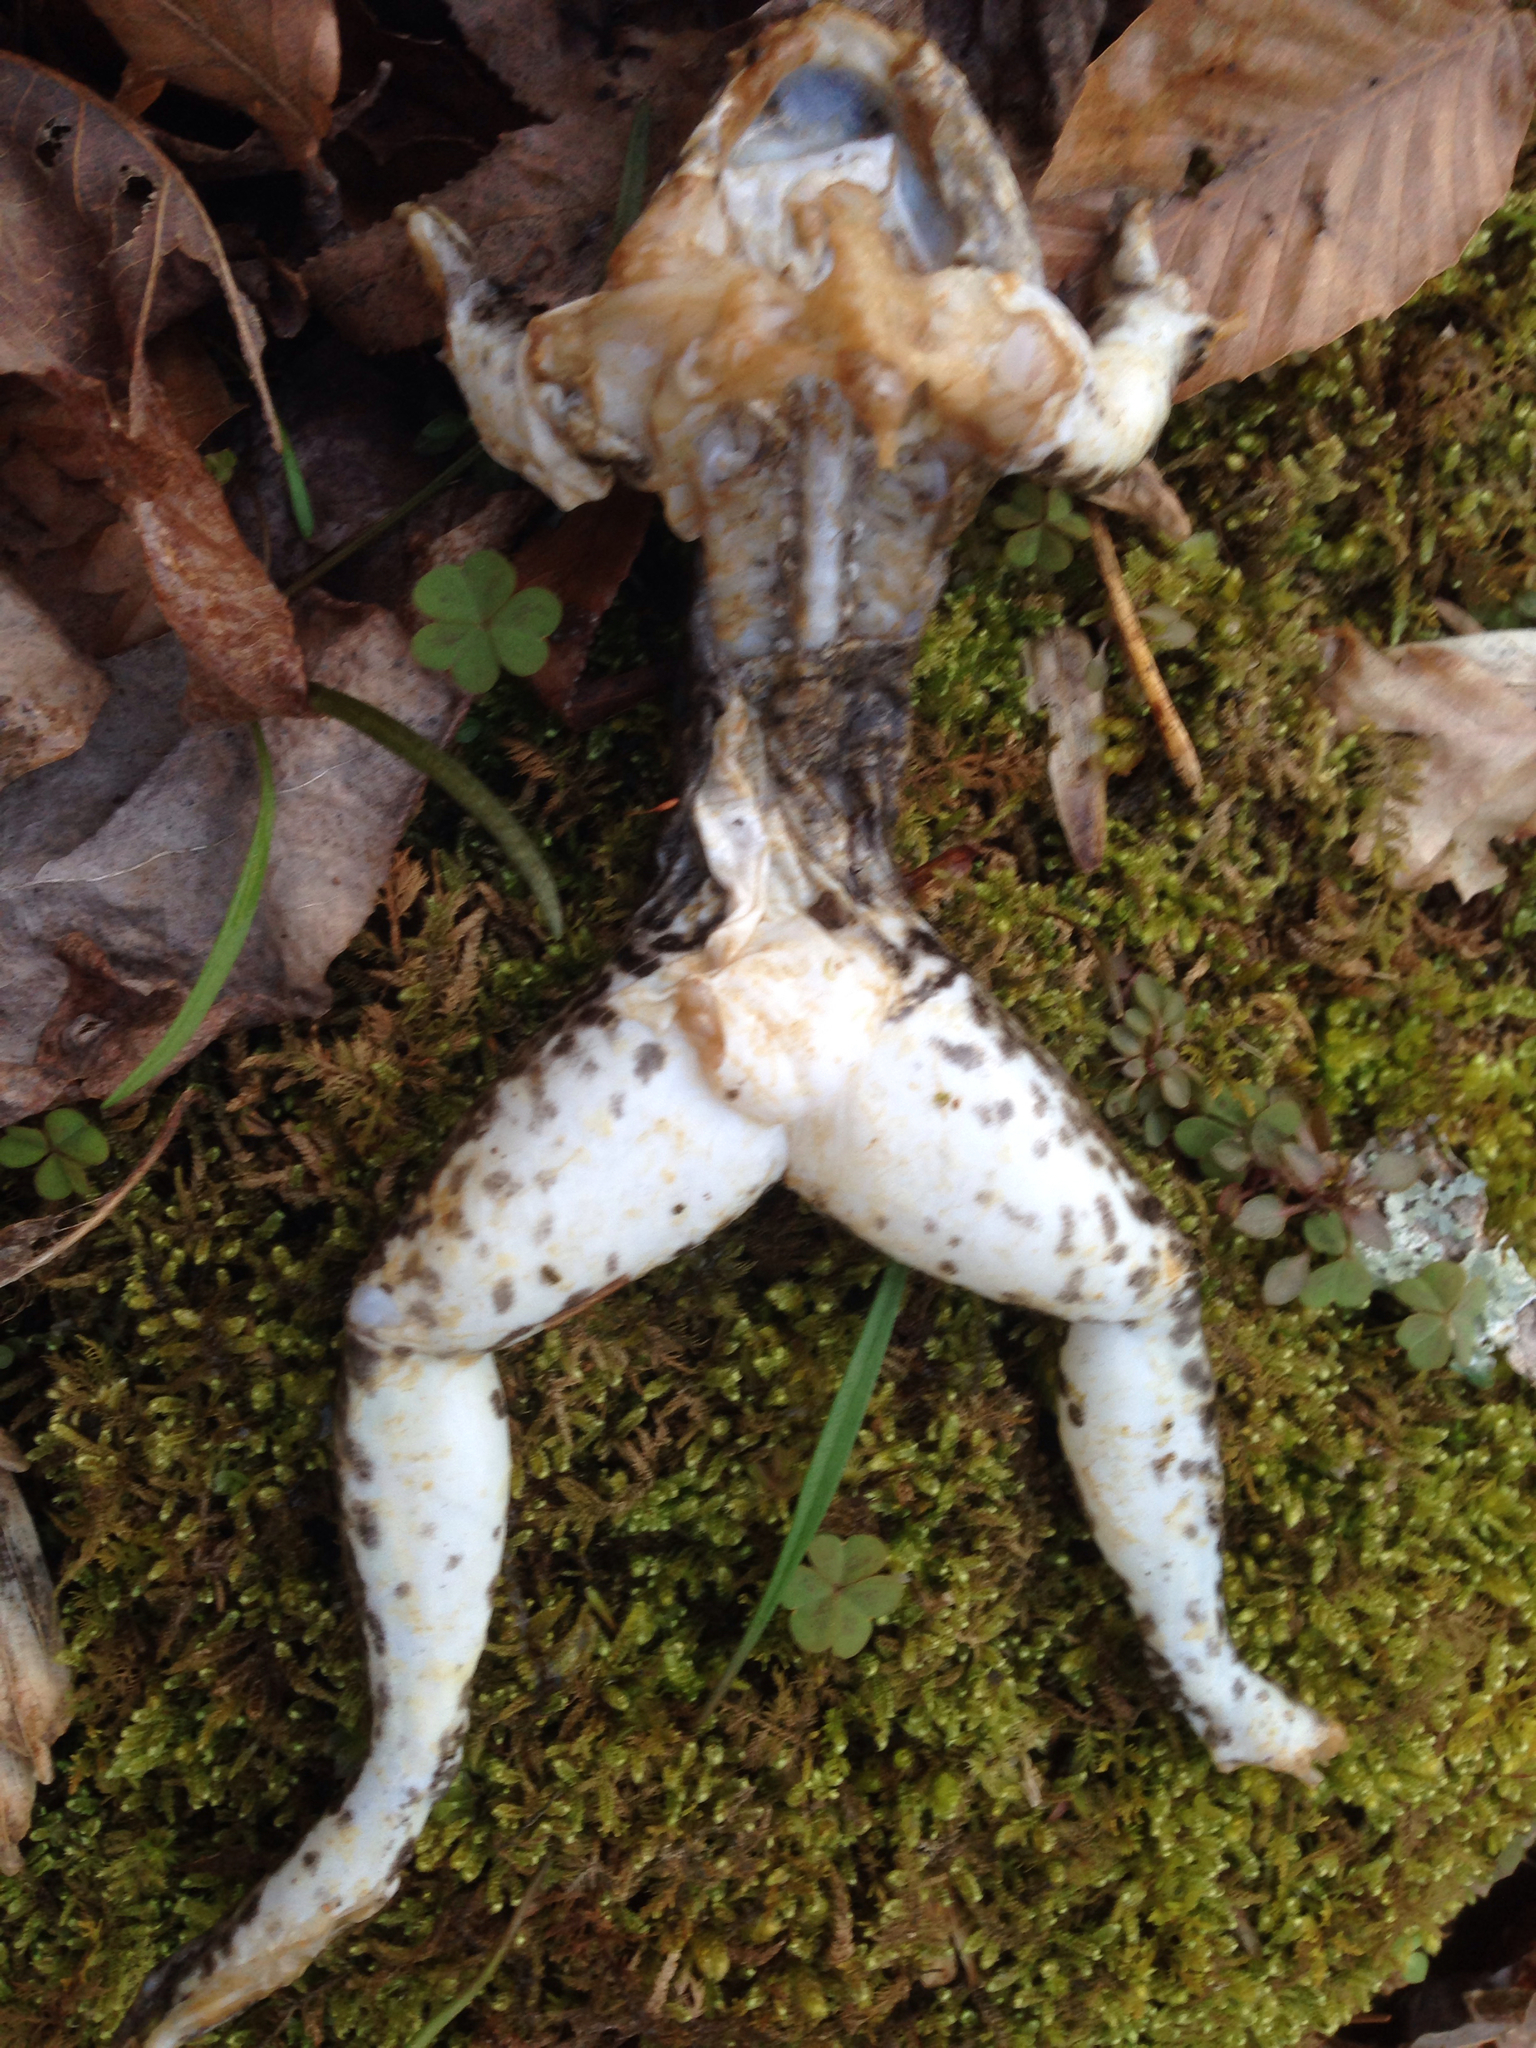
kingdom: Animalia
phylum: Chordata
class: Amphibia
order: Anura
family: Ranidae
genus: Lithobates
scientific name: Lithobates clamitans
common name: Green frog
